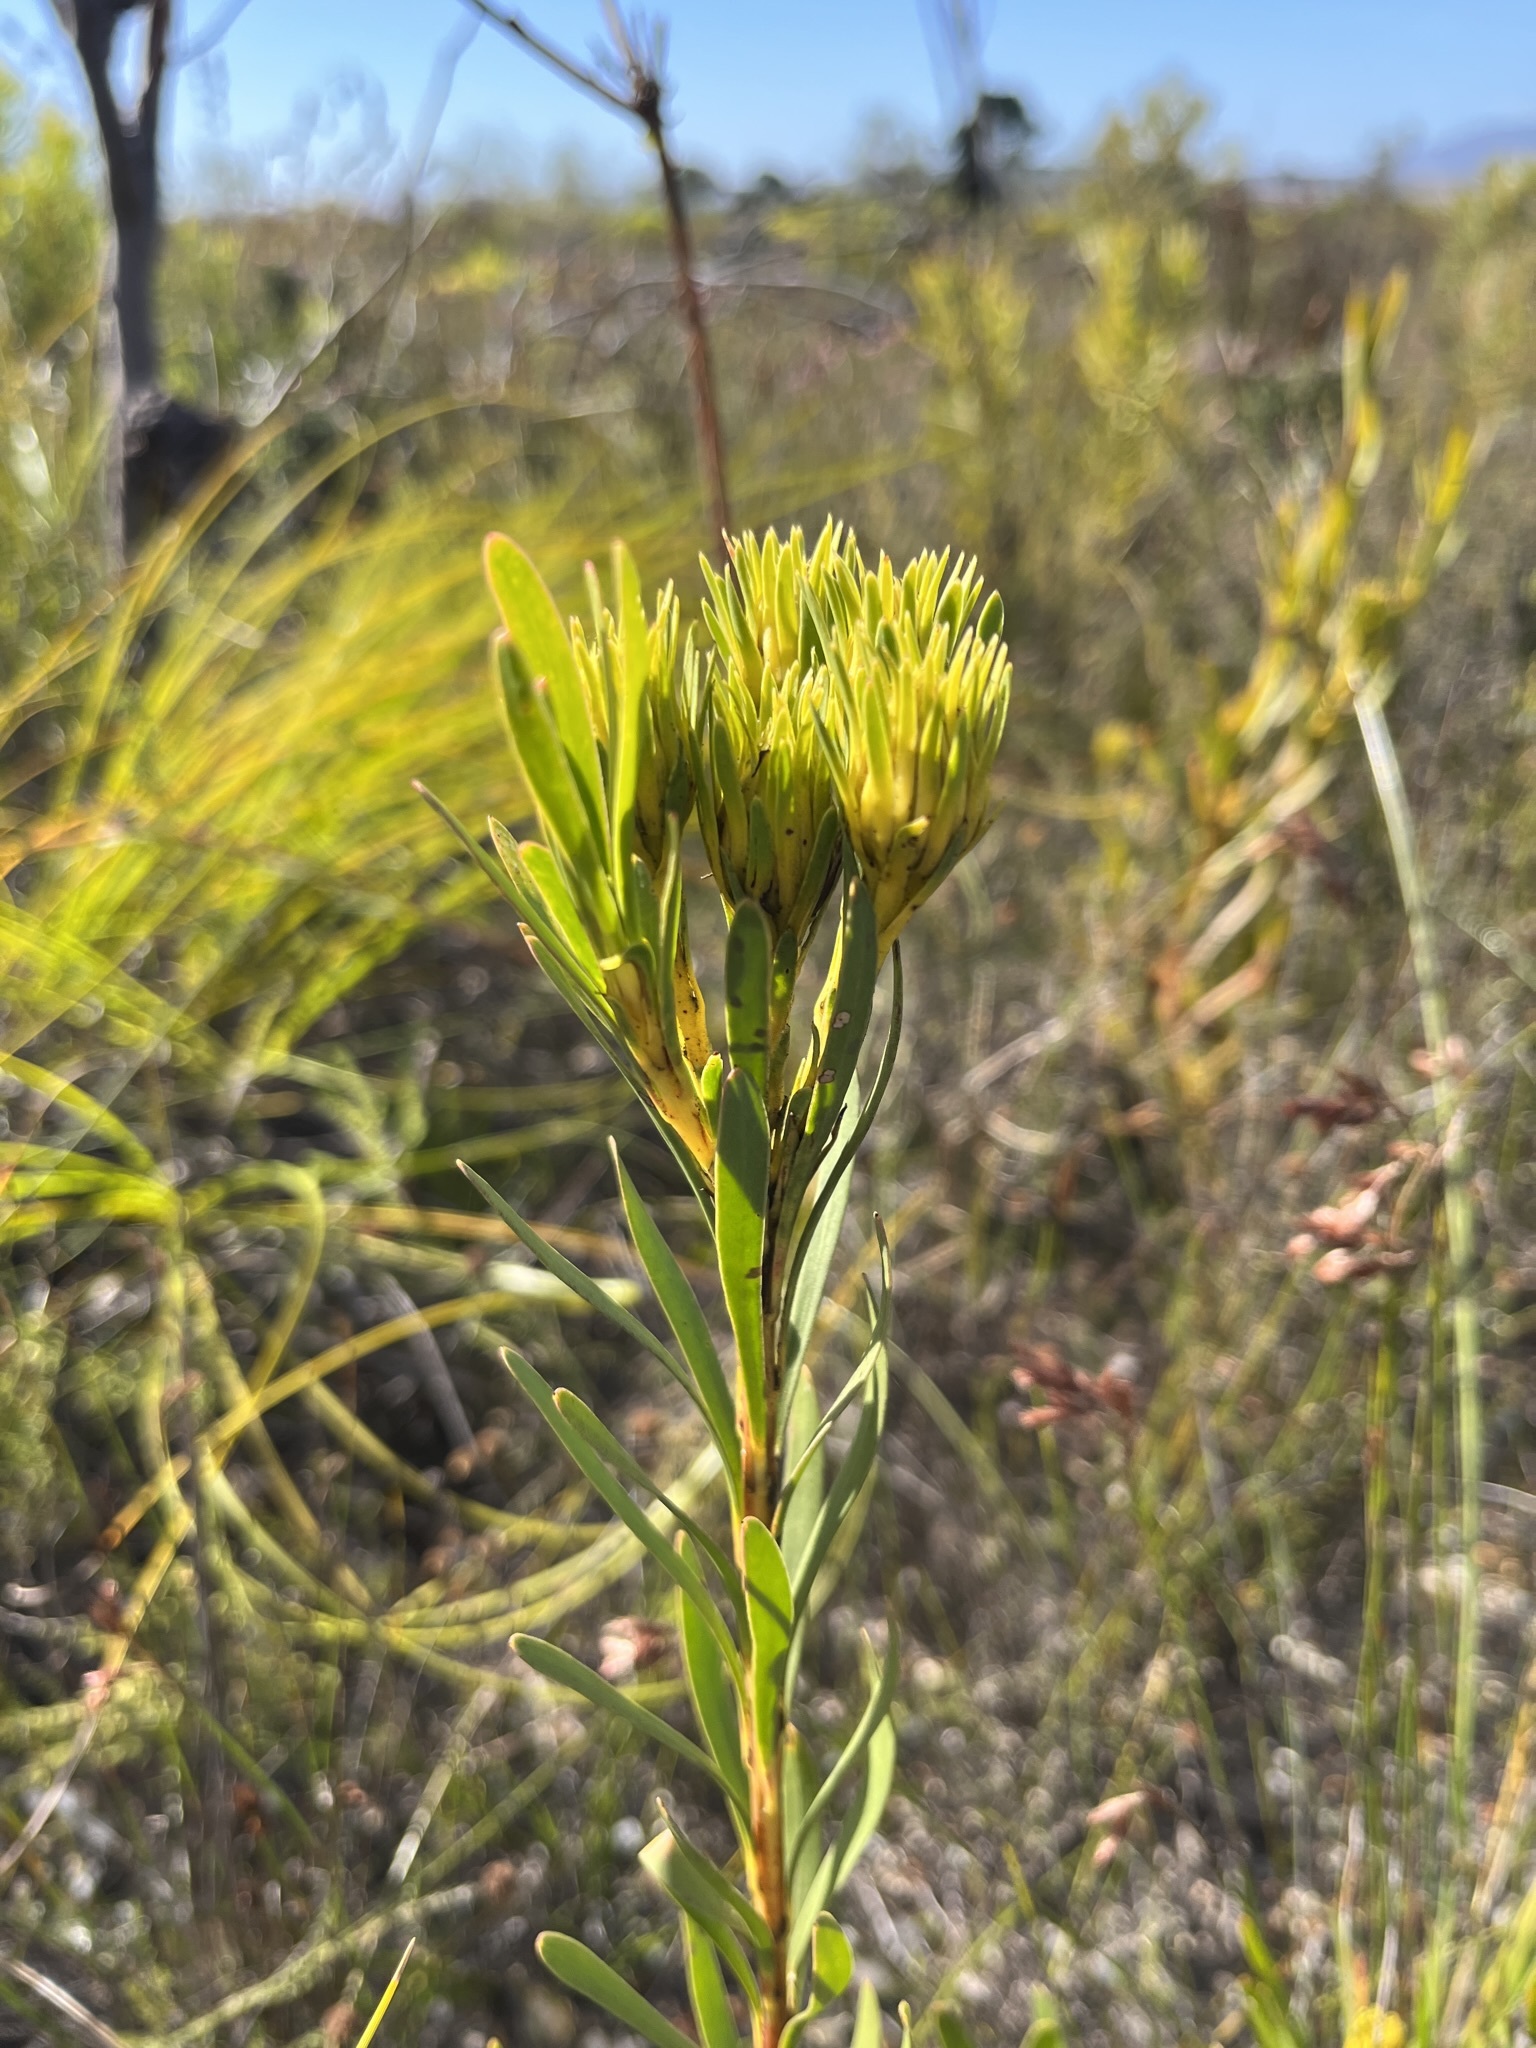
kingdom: Plantae
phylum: Tracheophyta
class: Magnoliopsida
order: Proteales
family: Proteaceae
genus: Aulax
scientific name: Aulax umbellata
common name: Broad-leaf featherbush
